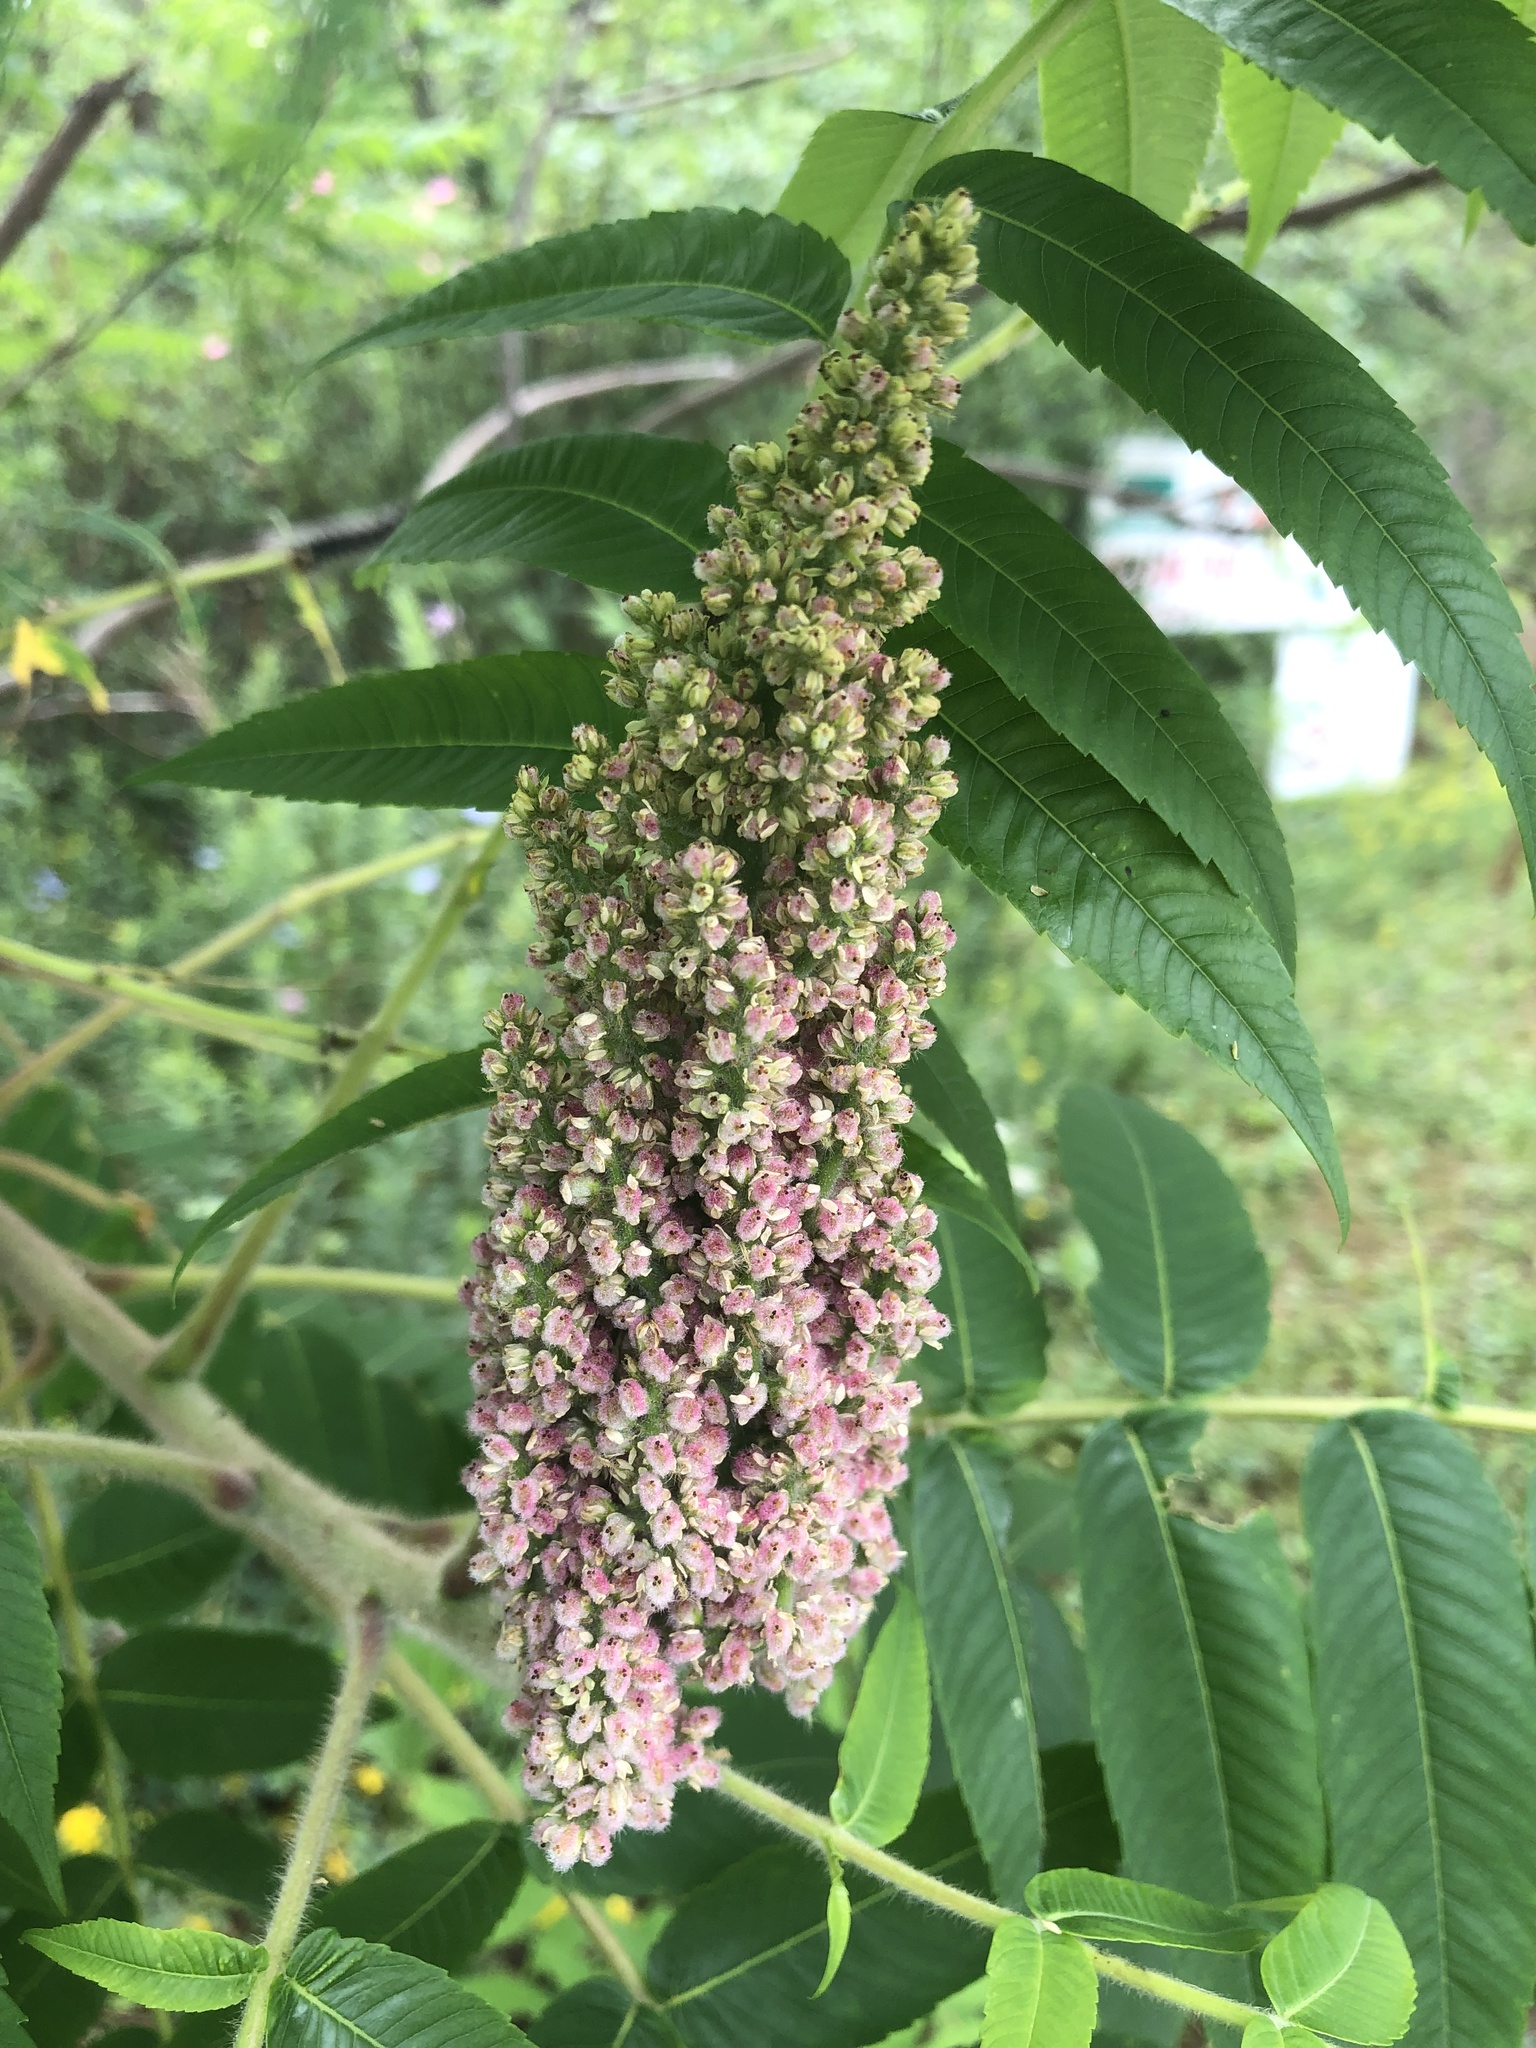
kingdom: Plantae
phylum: Tracheophyta
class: Magnoliopsida
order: Sapindales
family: Anacardiaceae
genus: Rhus
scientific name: Rhus typhina
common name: Staghorn sumac
